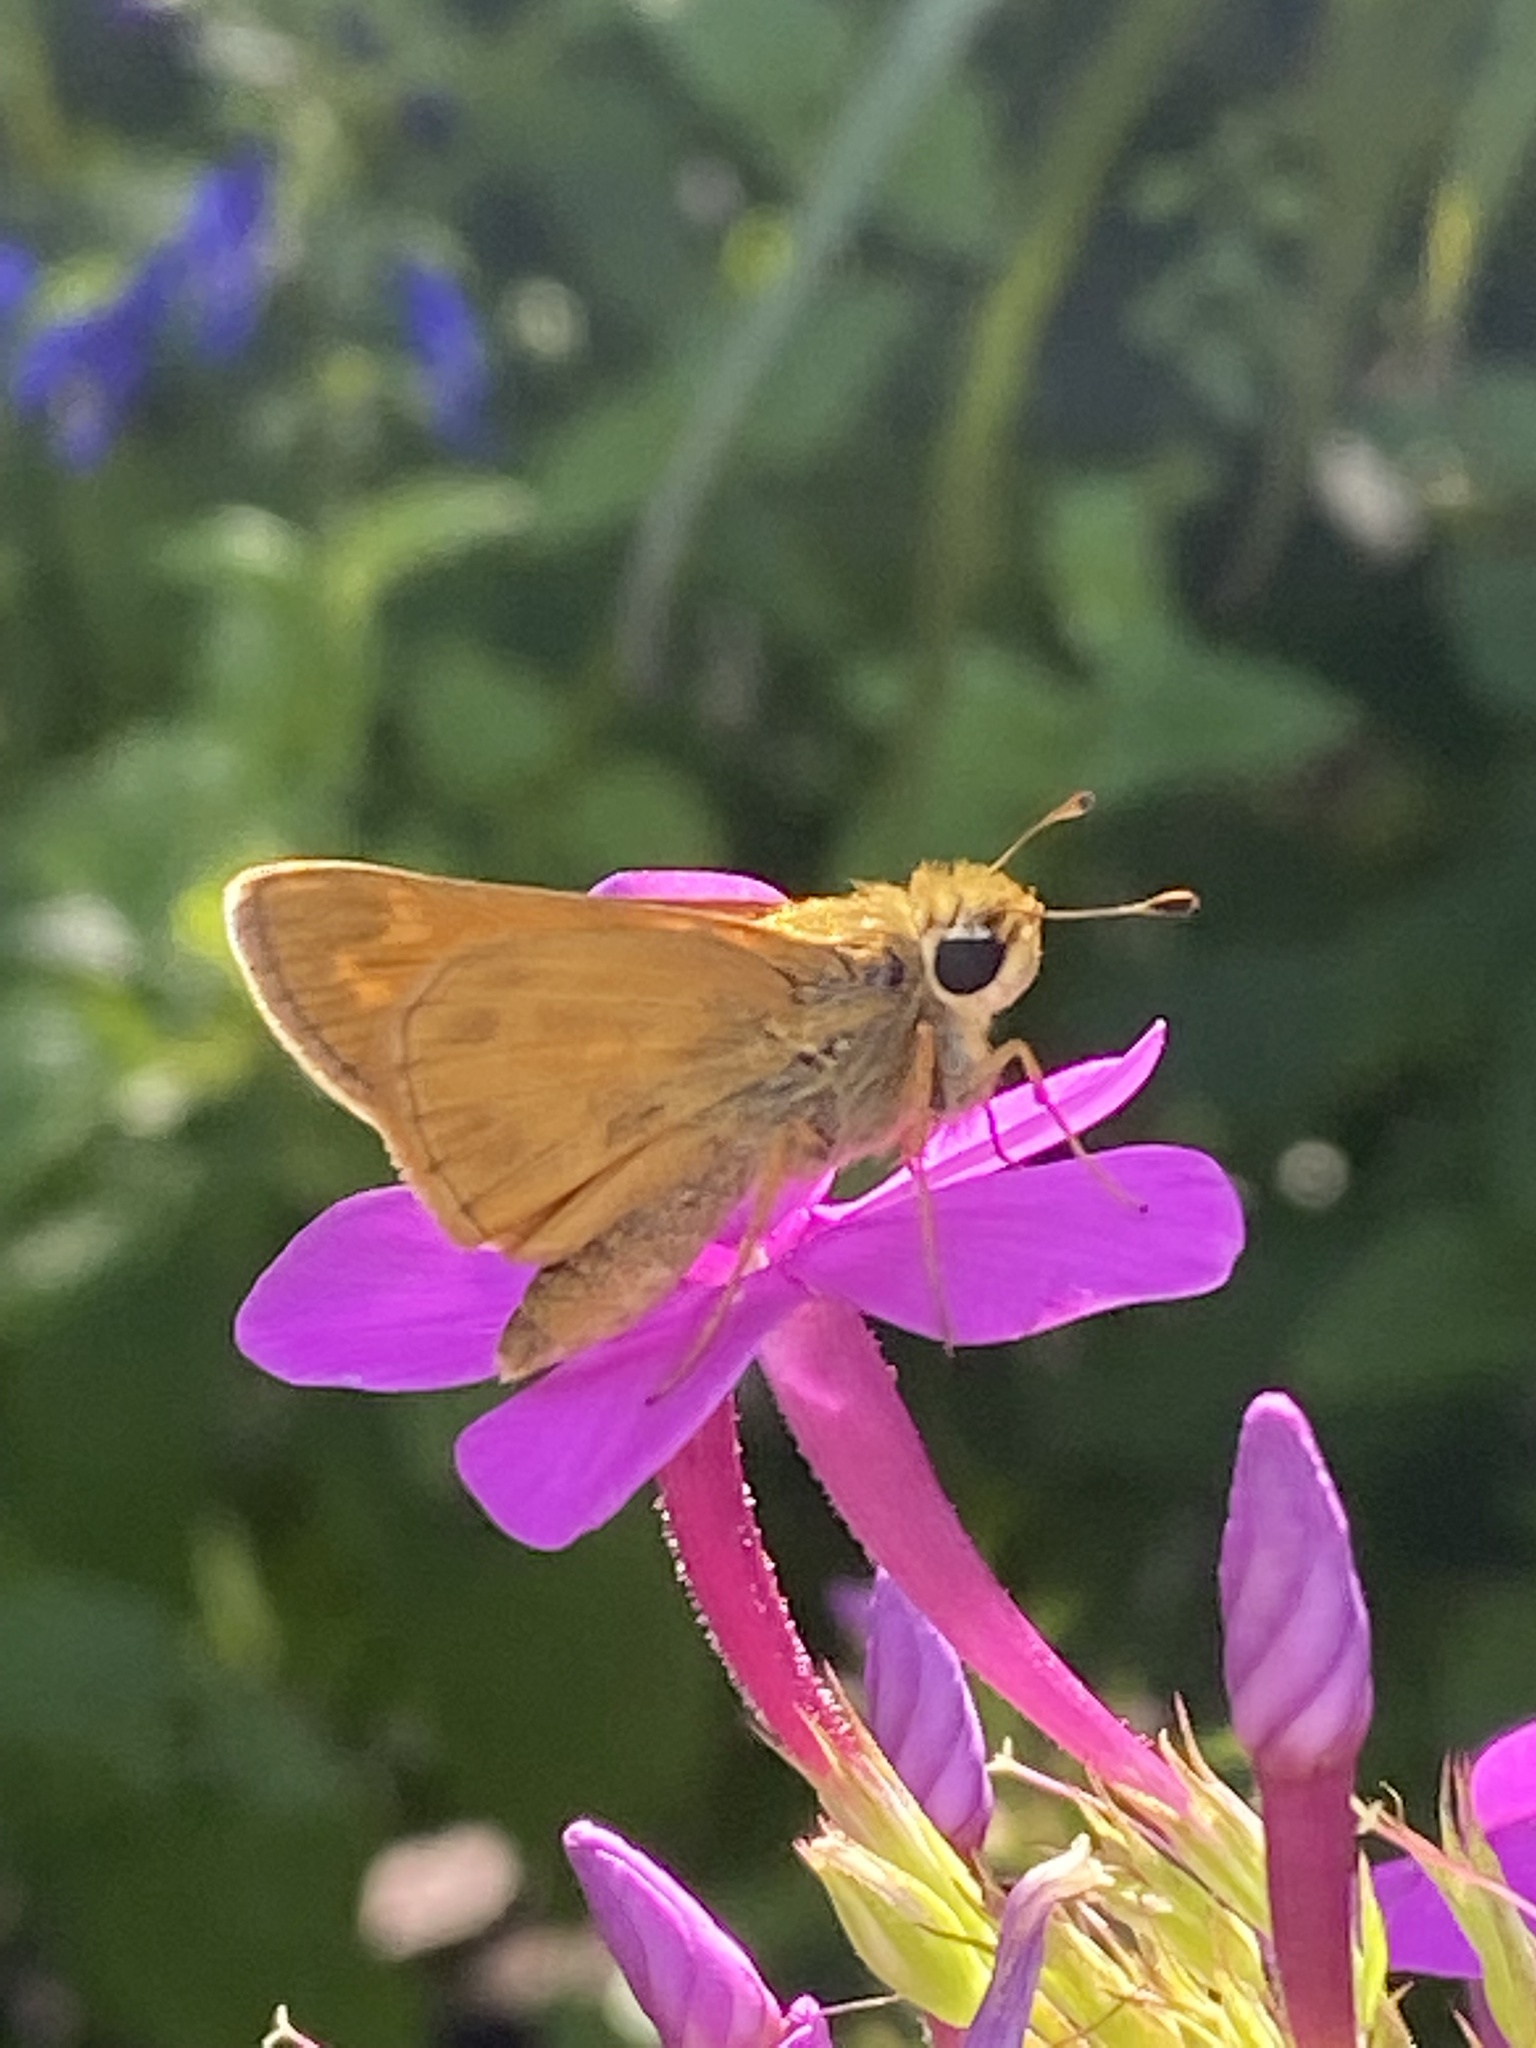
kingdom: Animalia
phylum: Arthropoda
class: Insecta
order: Lepidoptera
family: Hesperiidae
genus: Atalopedes
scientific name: Atalopedes
